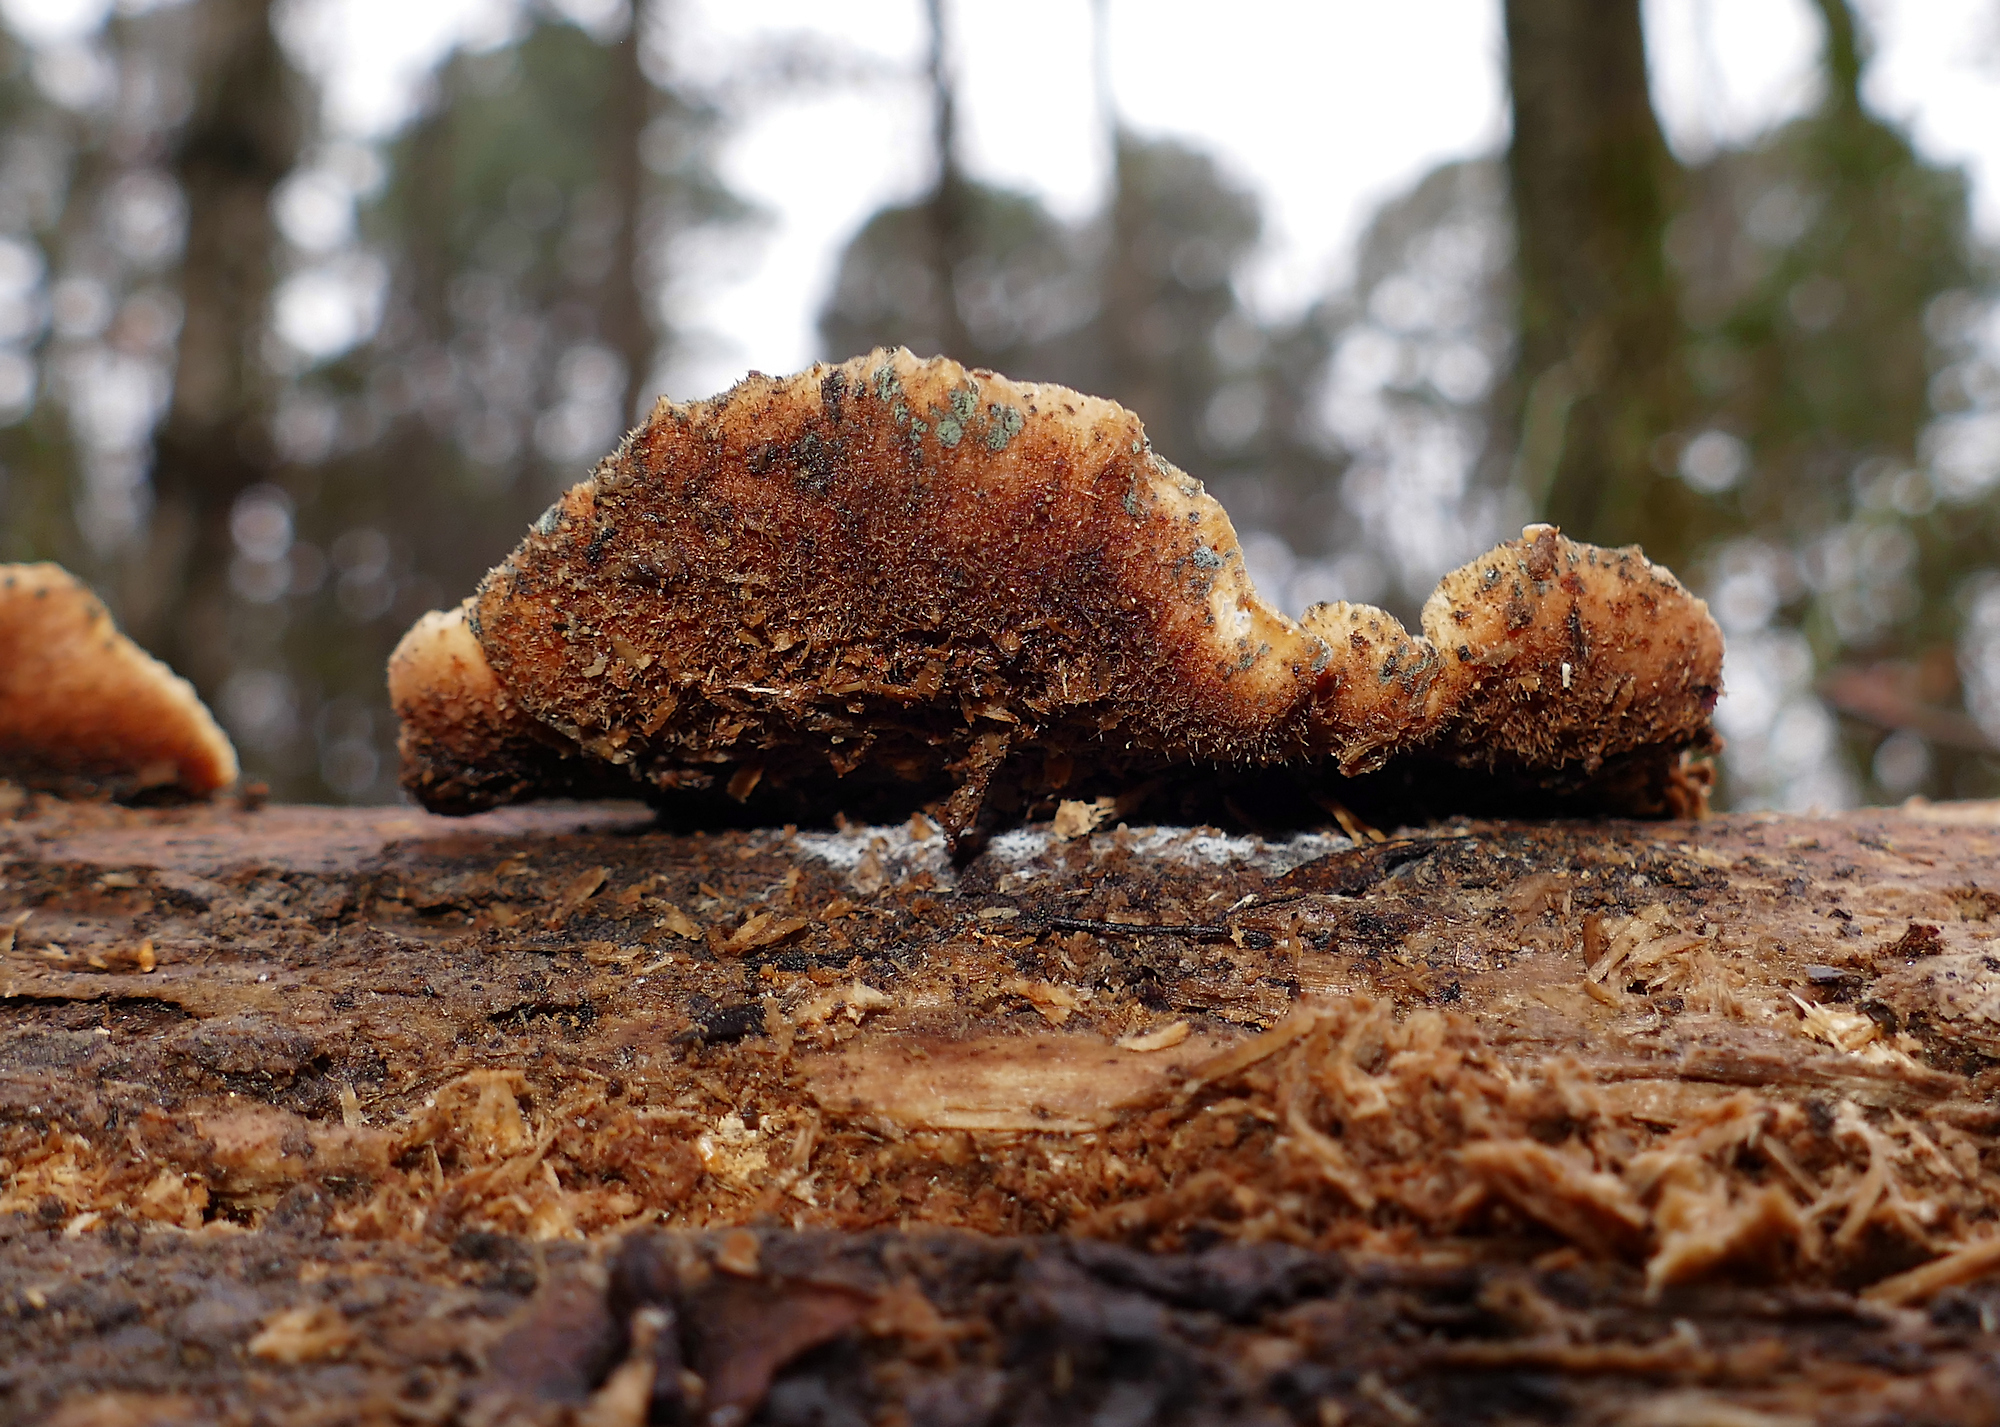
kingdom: Fungi
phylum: Basidiomycota
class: Agaricomycetes
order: Russulales
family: Auriscalpiaceae
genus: Lentinellus
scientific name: Lentinellus ursinus
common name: Bear lentinus
